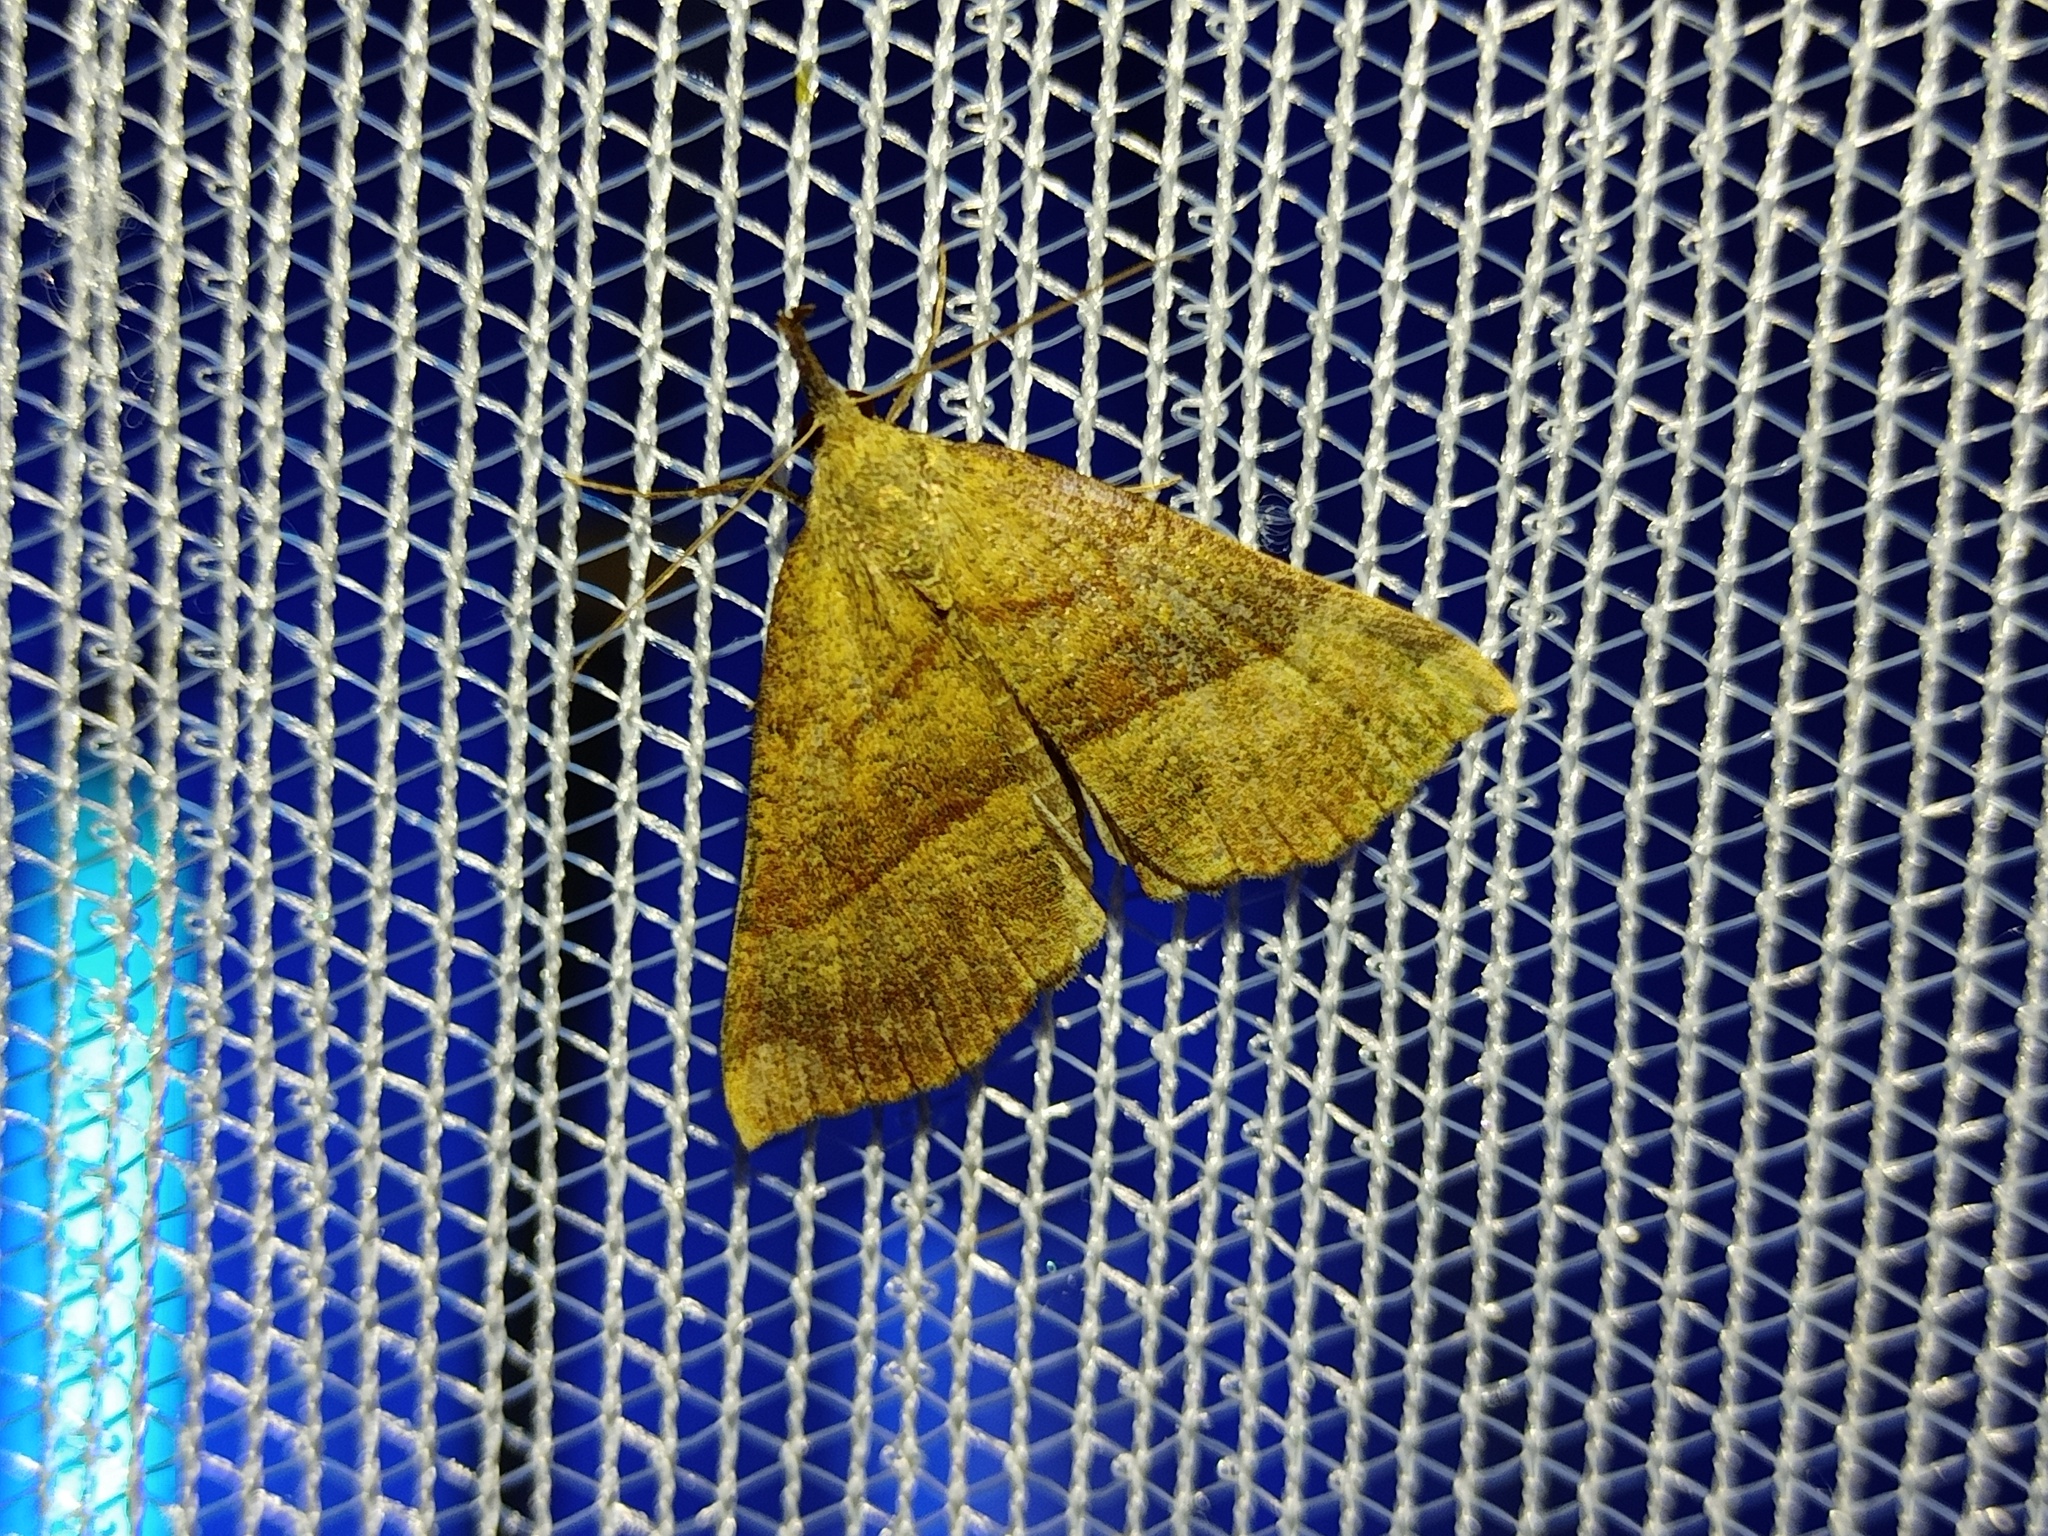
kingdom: Animalia
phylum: Arthropoda
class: Insecta
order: Lepidoptera
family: Erebidae
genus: Hypena
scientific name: Hypena proboscidalis
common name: Snout
